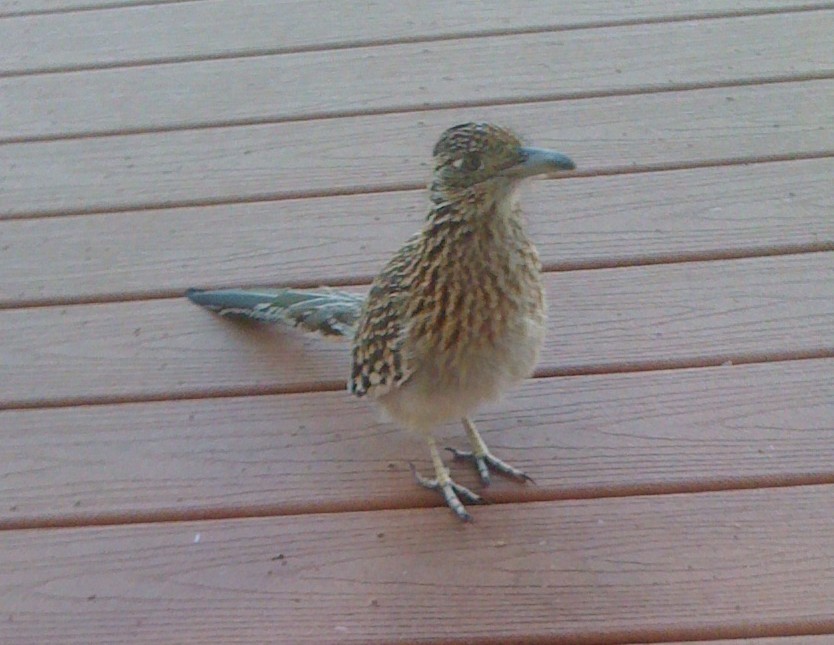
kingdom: Animalia
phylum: Chordata
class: Aves
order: Cuculiformes
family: Cuculidae
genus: Geococcyx
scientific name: Geococcyx californianus
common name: Greater roadrunner
